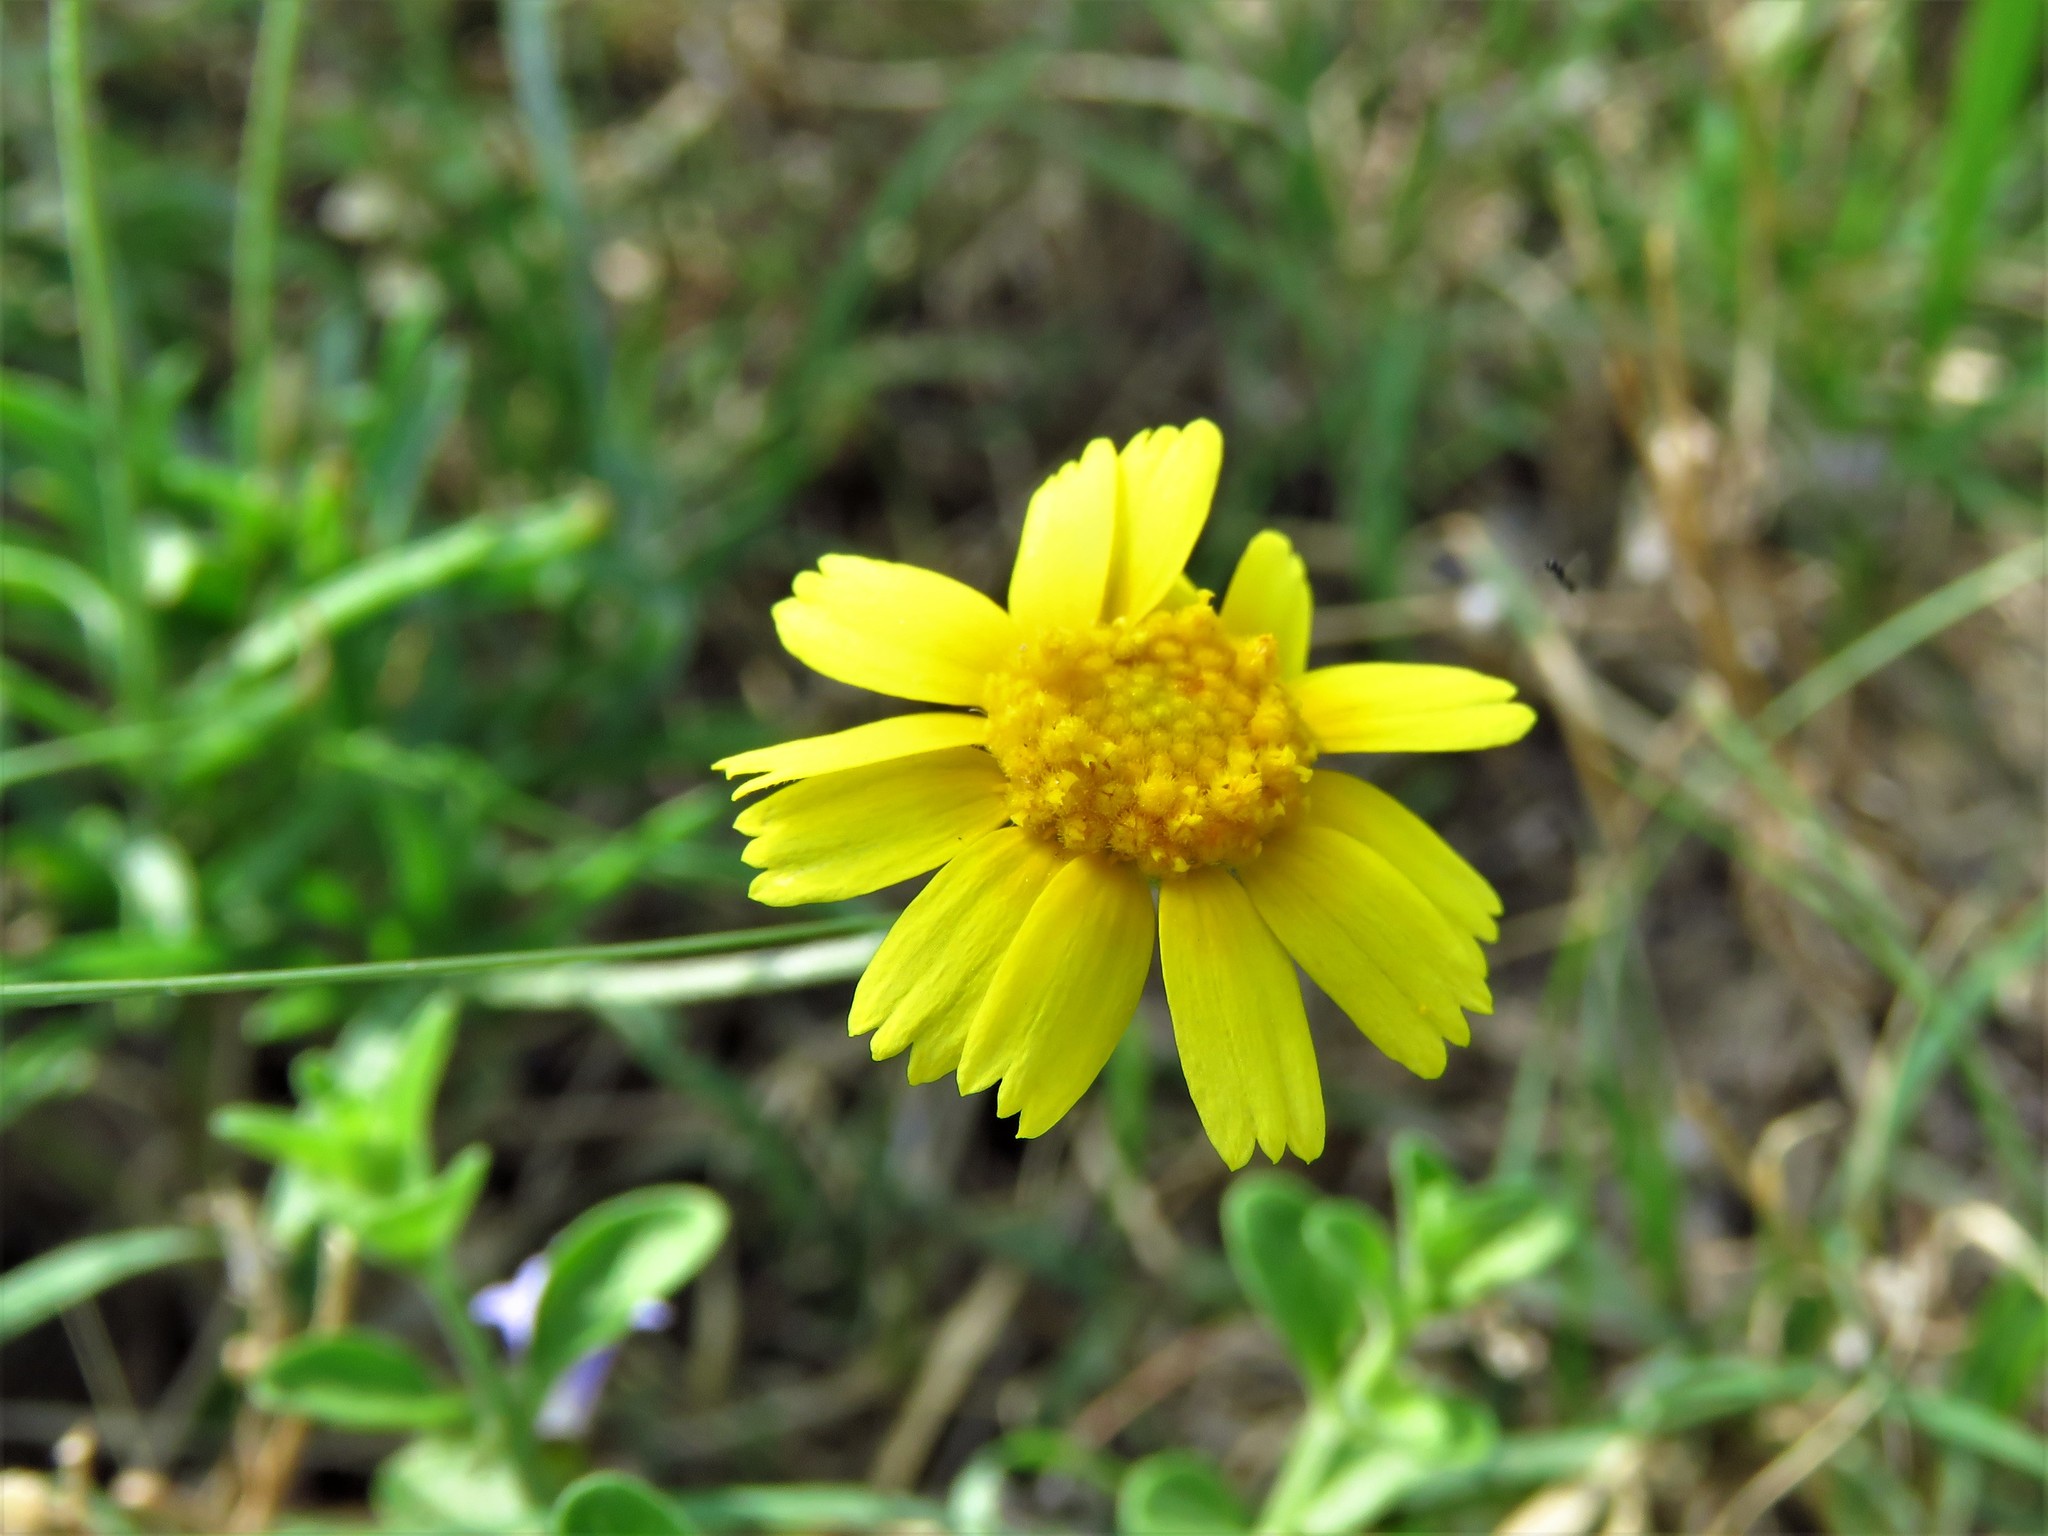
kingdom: Plantae
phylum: Tracheophyta
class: Magnoliopsida
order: Asterales
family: Asteraceae
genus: Tetraneuris
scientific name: Tetraneuris linearifolia
